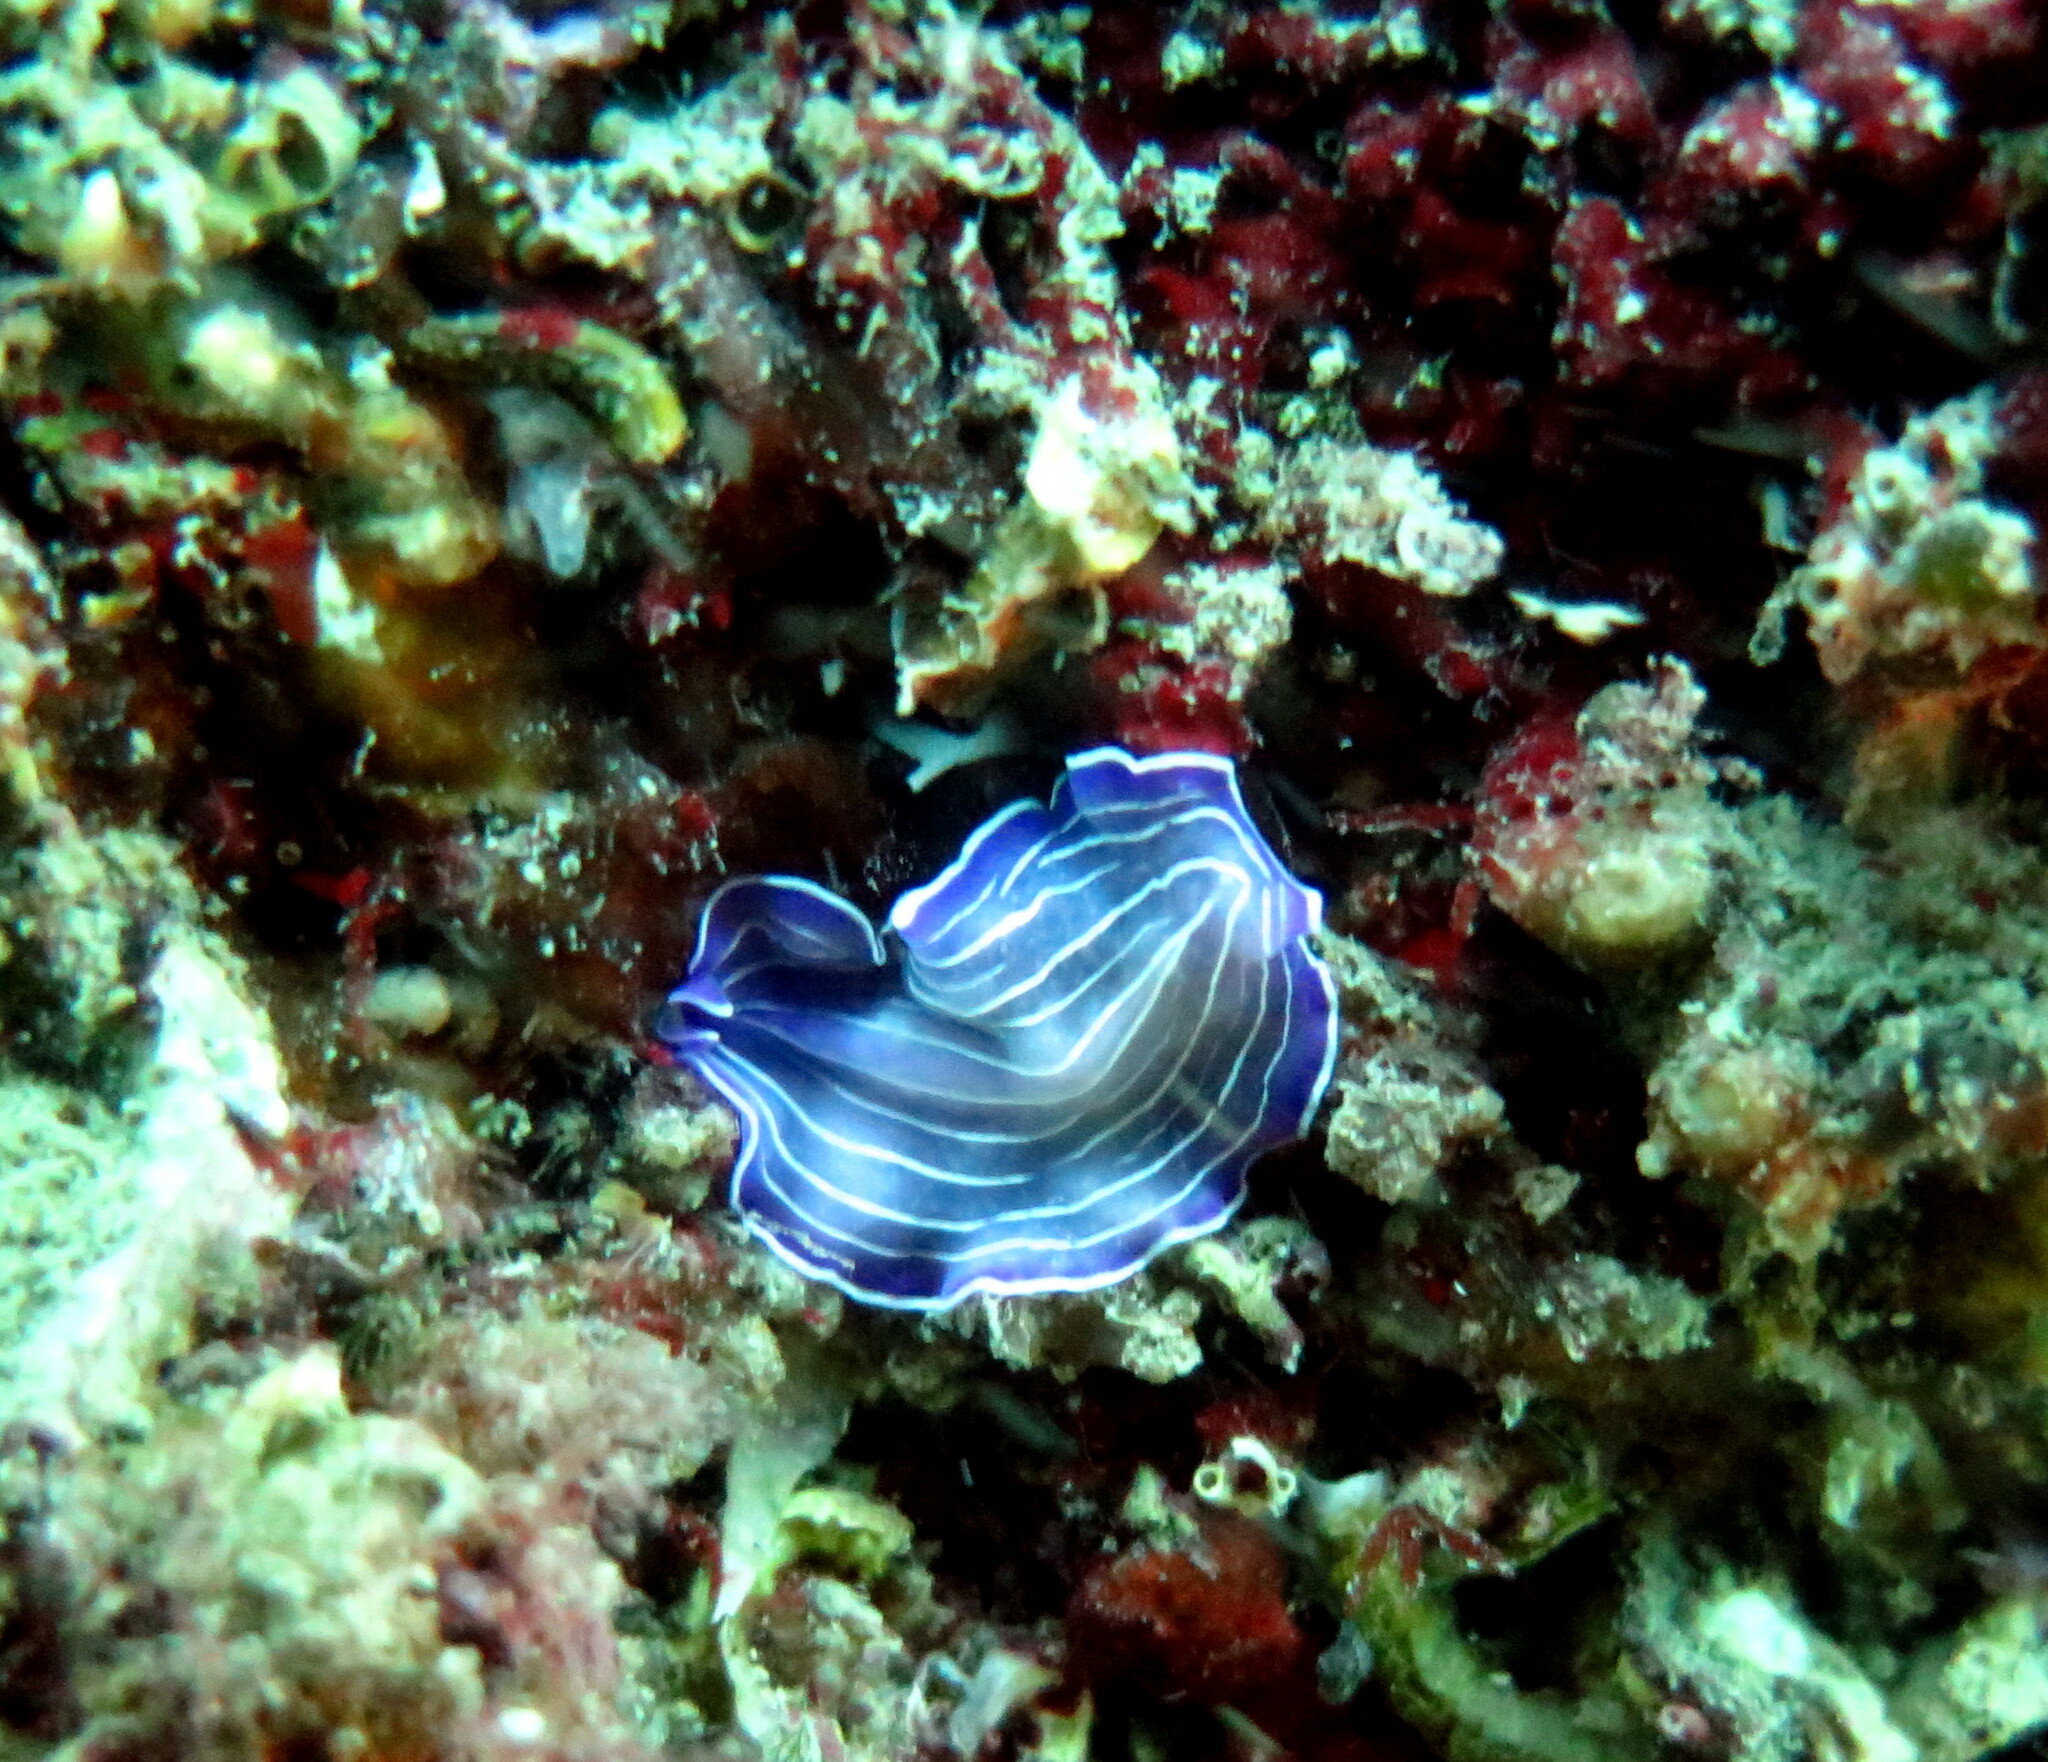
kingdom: Animalia
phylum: Platyhelminthes
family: Euryleptidae
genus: Prostheceraeus
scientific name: Prostheceraeus roseus
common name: Pink flatworm
